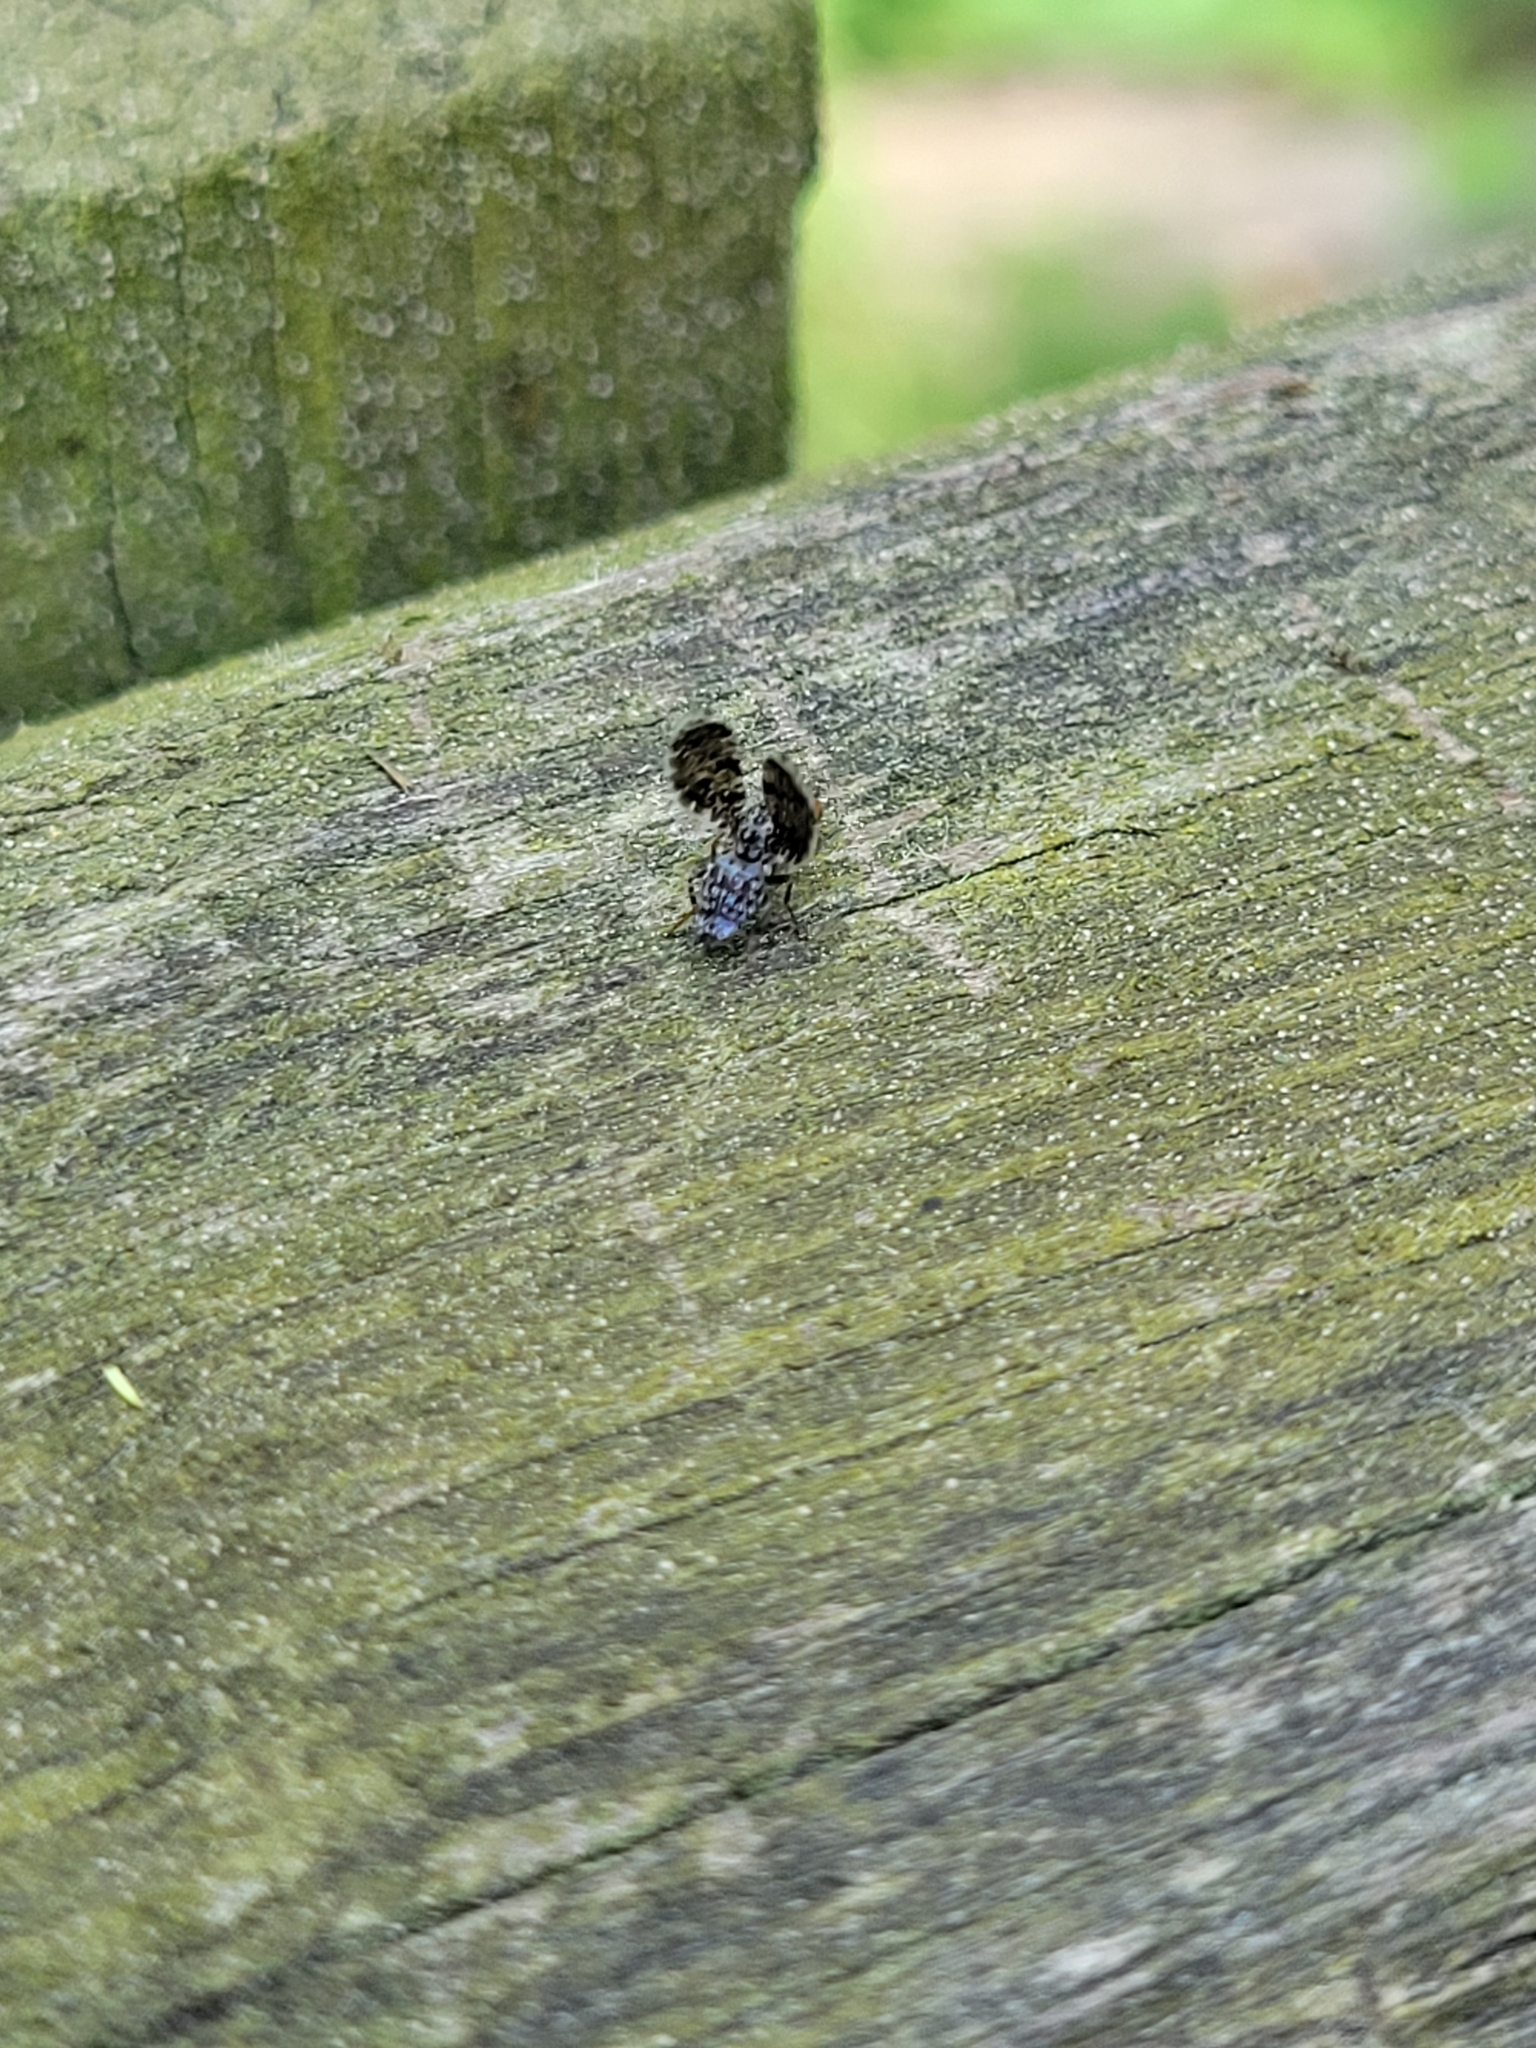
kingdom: Animalia
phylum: Arthropoda
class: Insecta
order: Diptera
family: Ulidiidae
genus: Callopistromyia
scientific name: Callopistromyia annulipes
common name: Peacock fly
